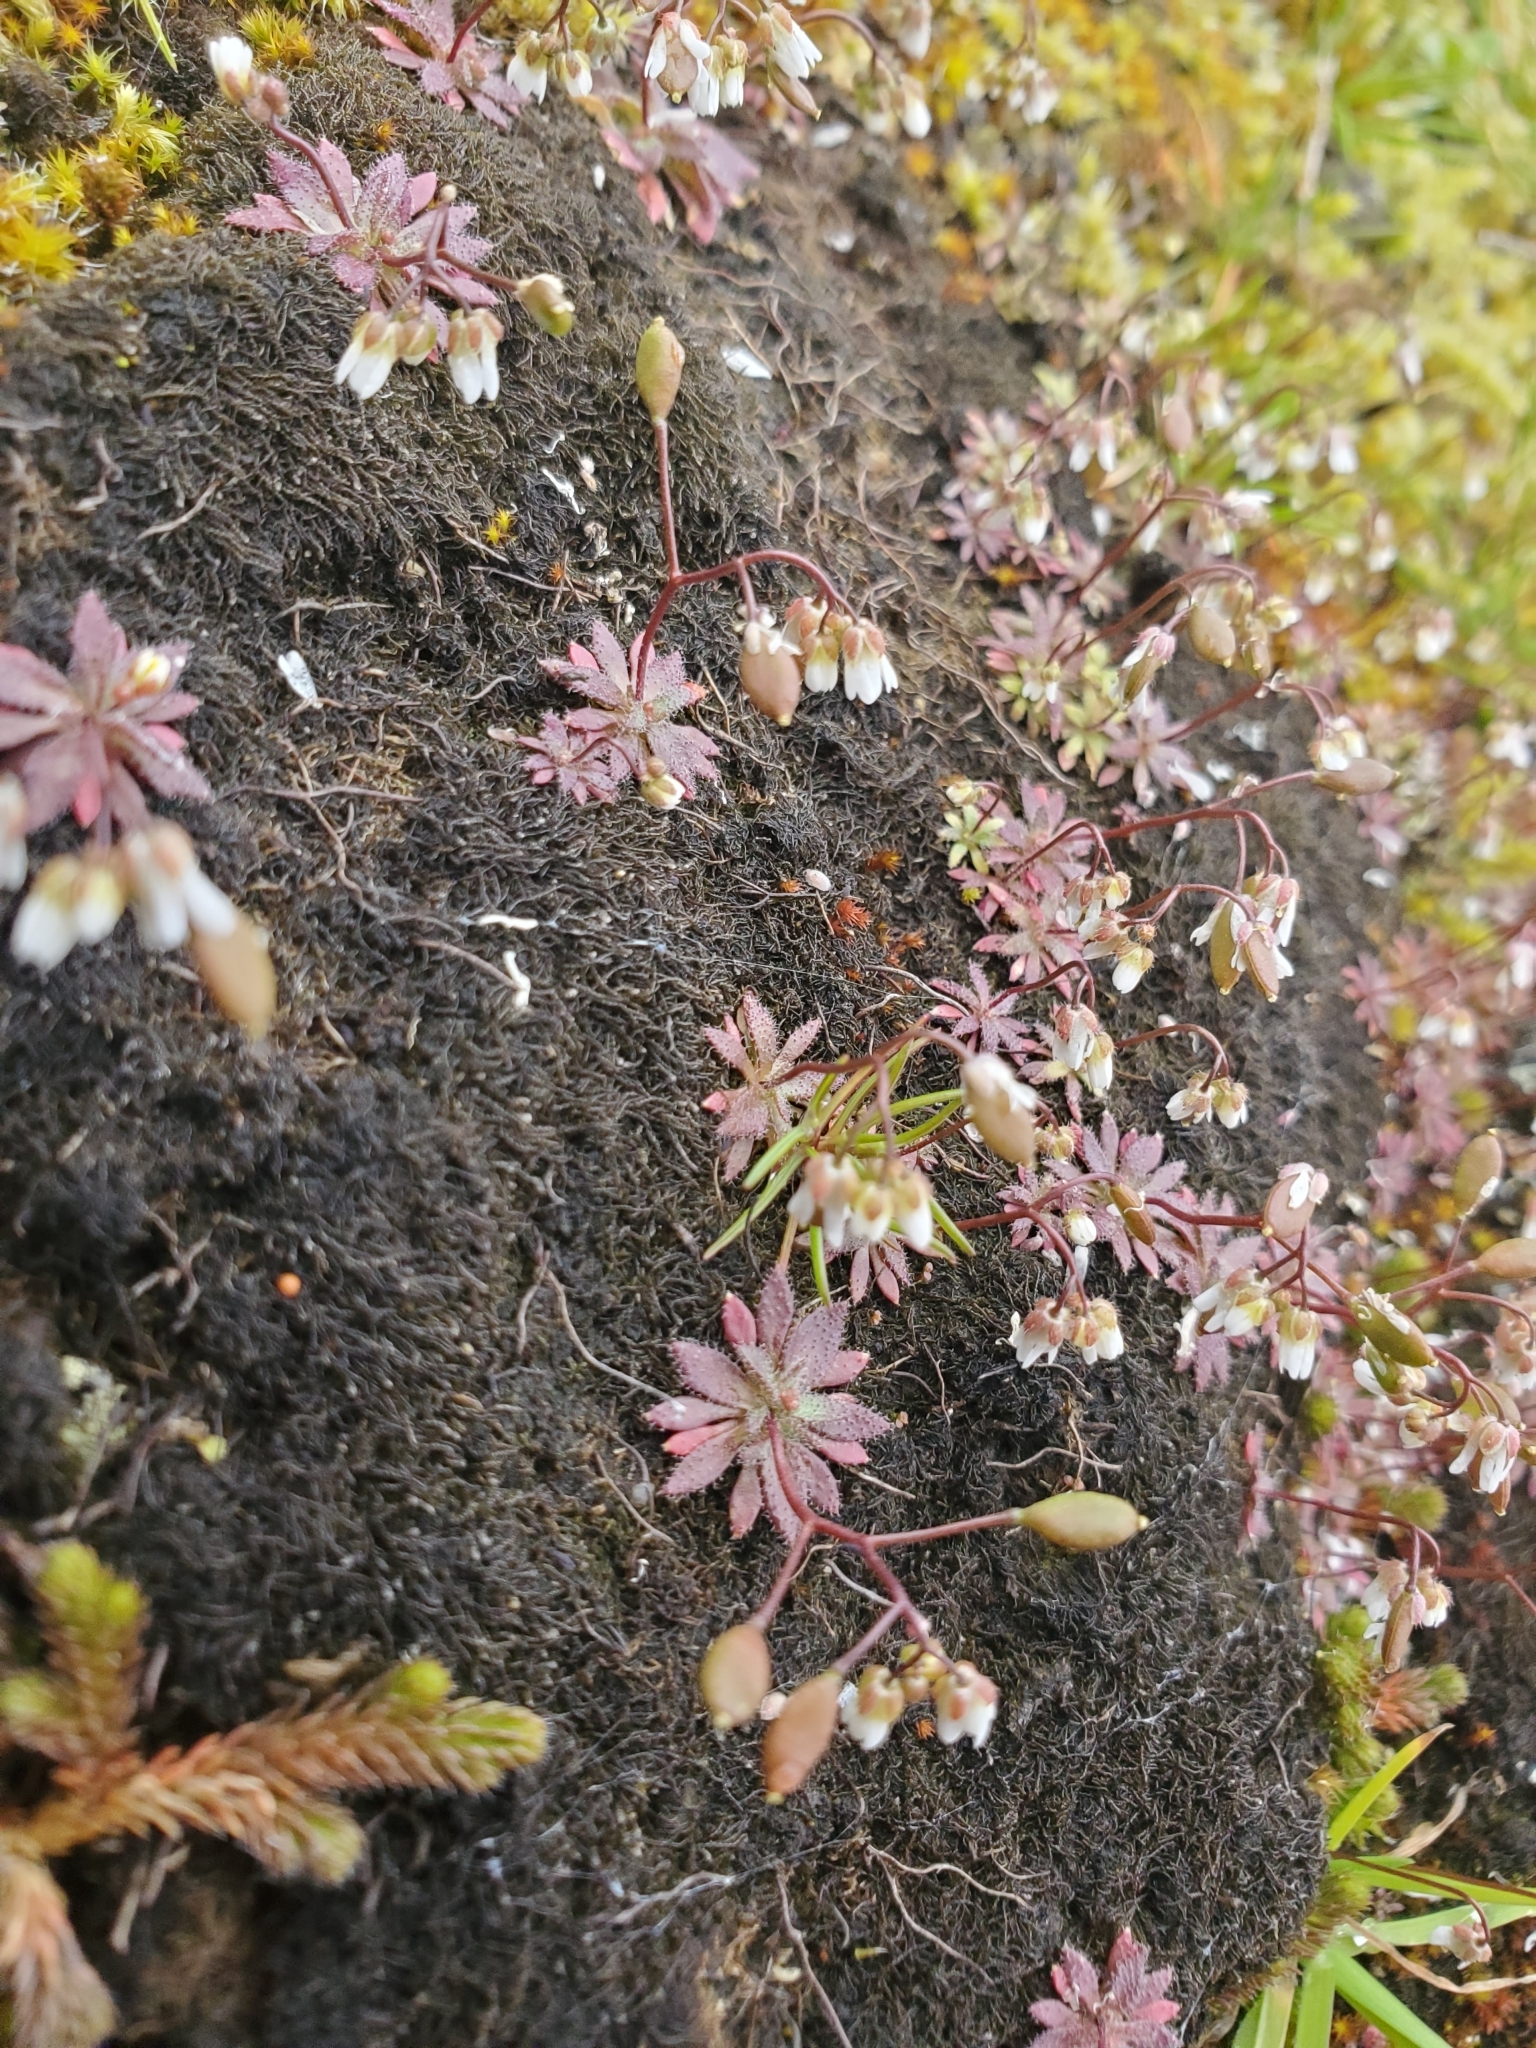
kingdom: Plantae
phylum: Tracheophyta
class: Magnoliopsida
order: Brassicales
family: Brassicaceae
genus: Draba
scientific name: Draba verna
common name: Spring draba
